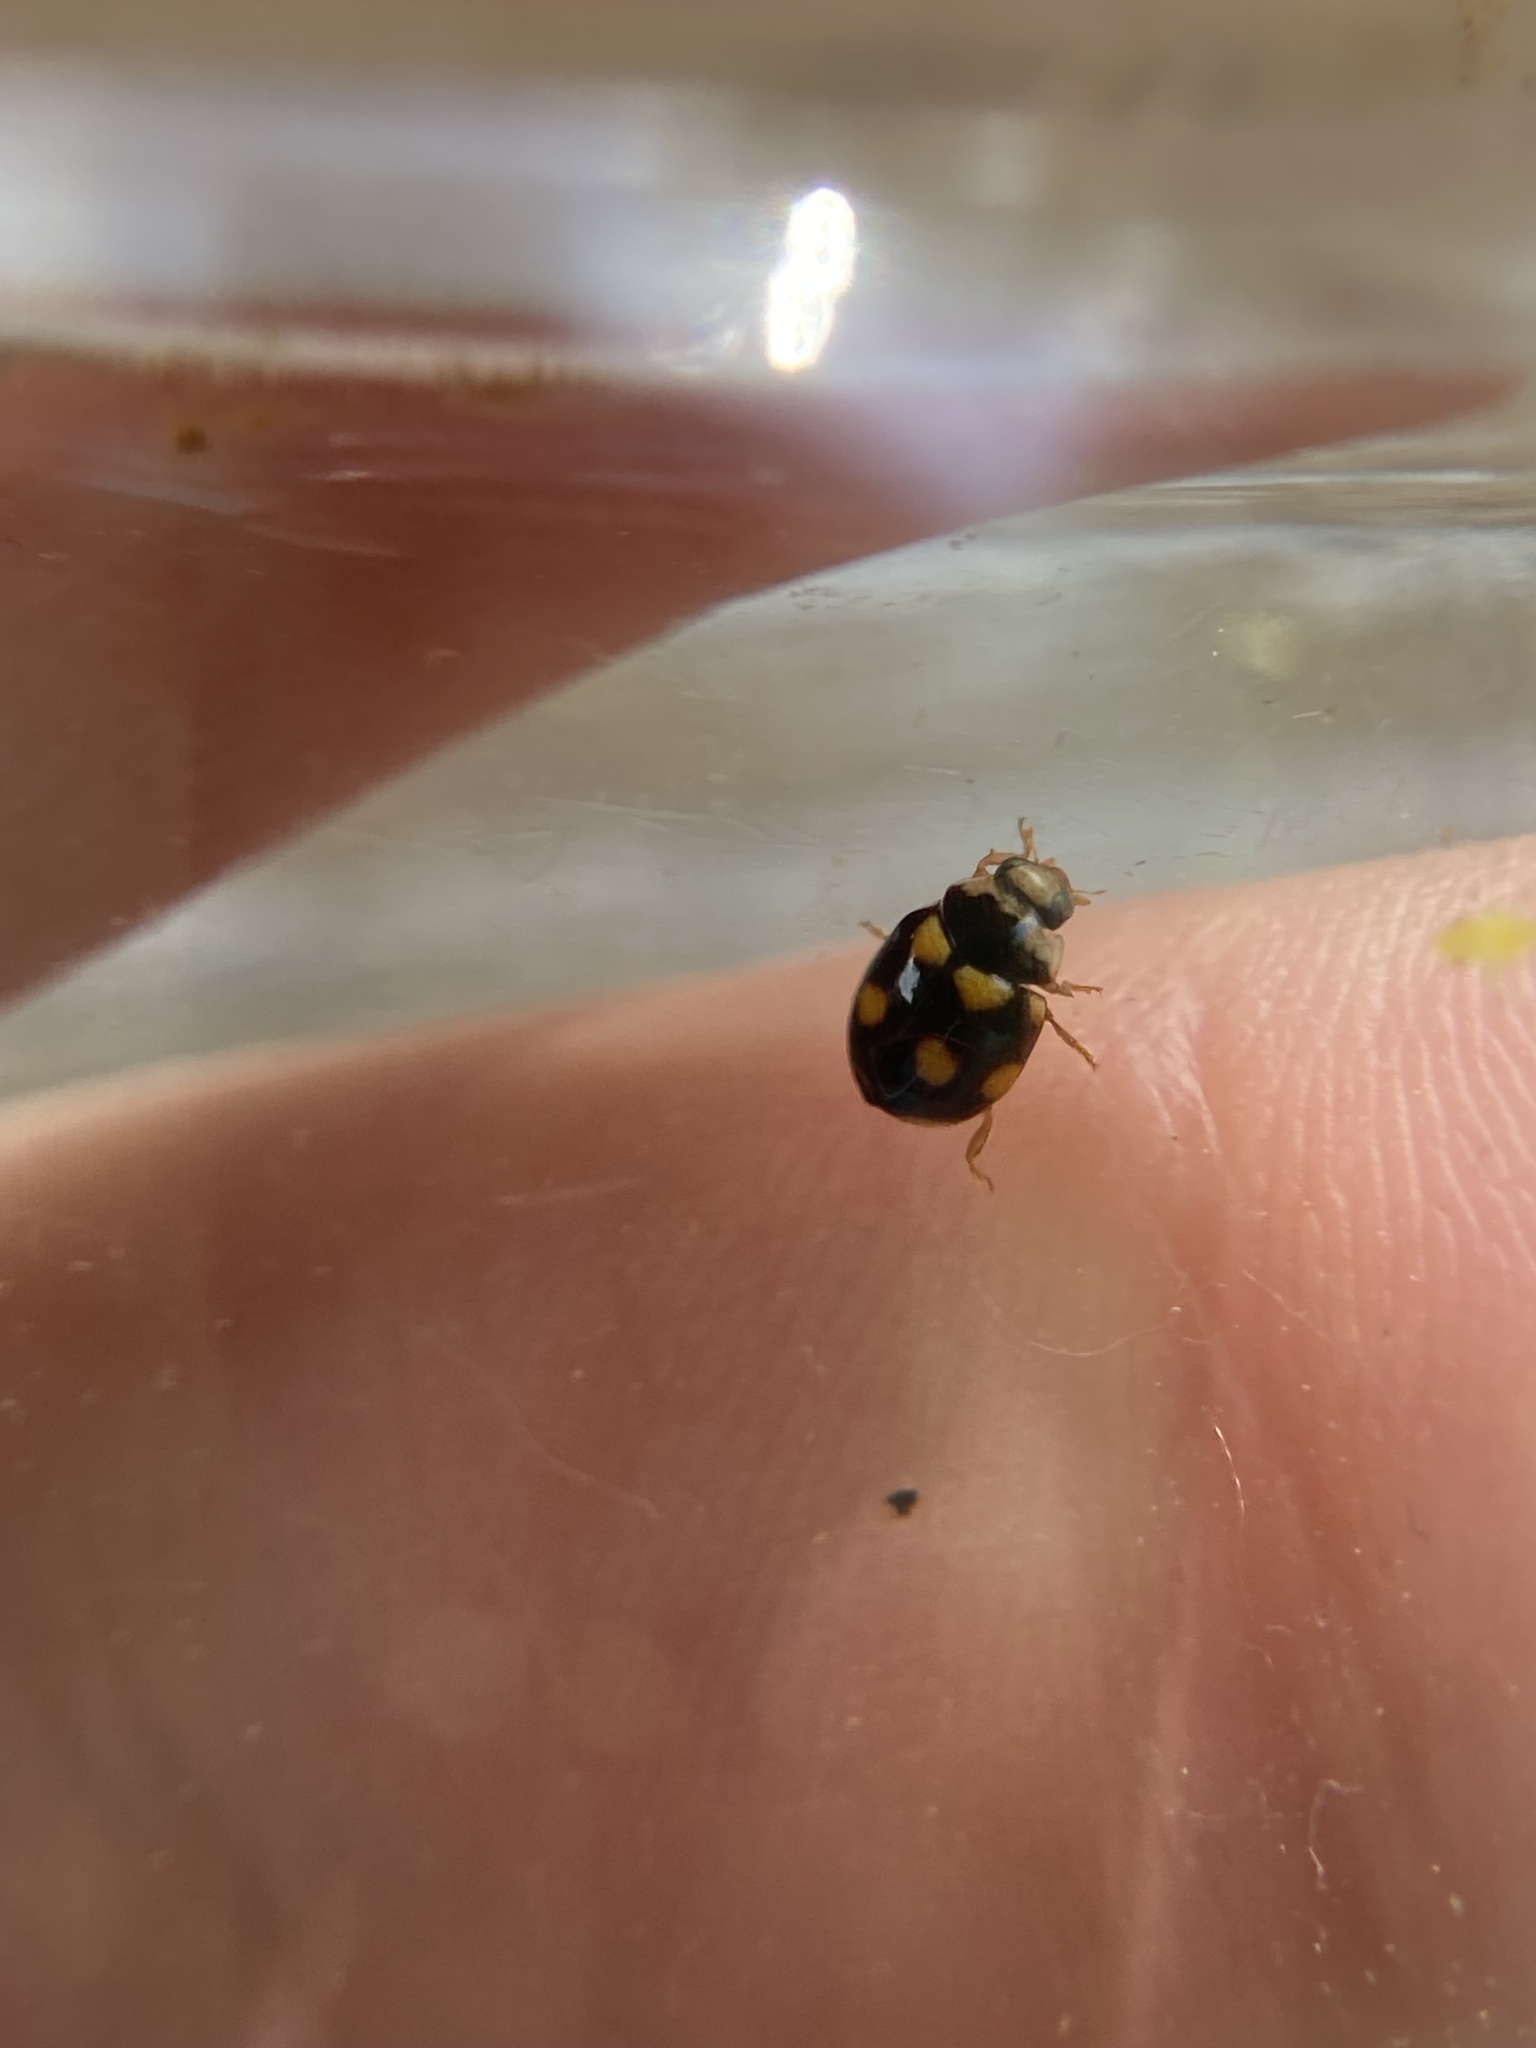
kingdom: Animalia
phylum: Arthropoda
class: Insecta
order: Coleoptera
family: Coccinellidae
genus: Brachiacantha
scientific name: Brachiacantha ursina
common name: Ursine spurleg lady beetle
